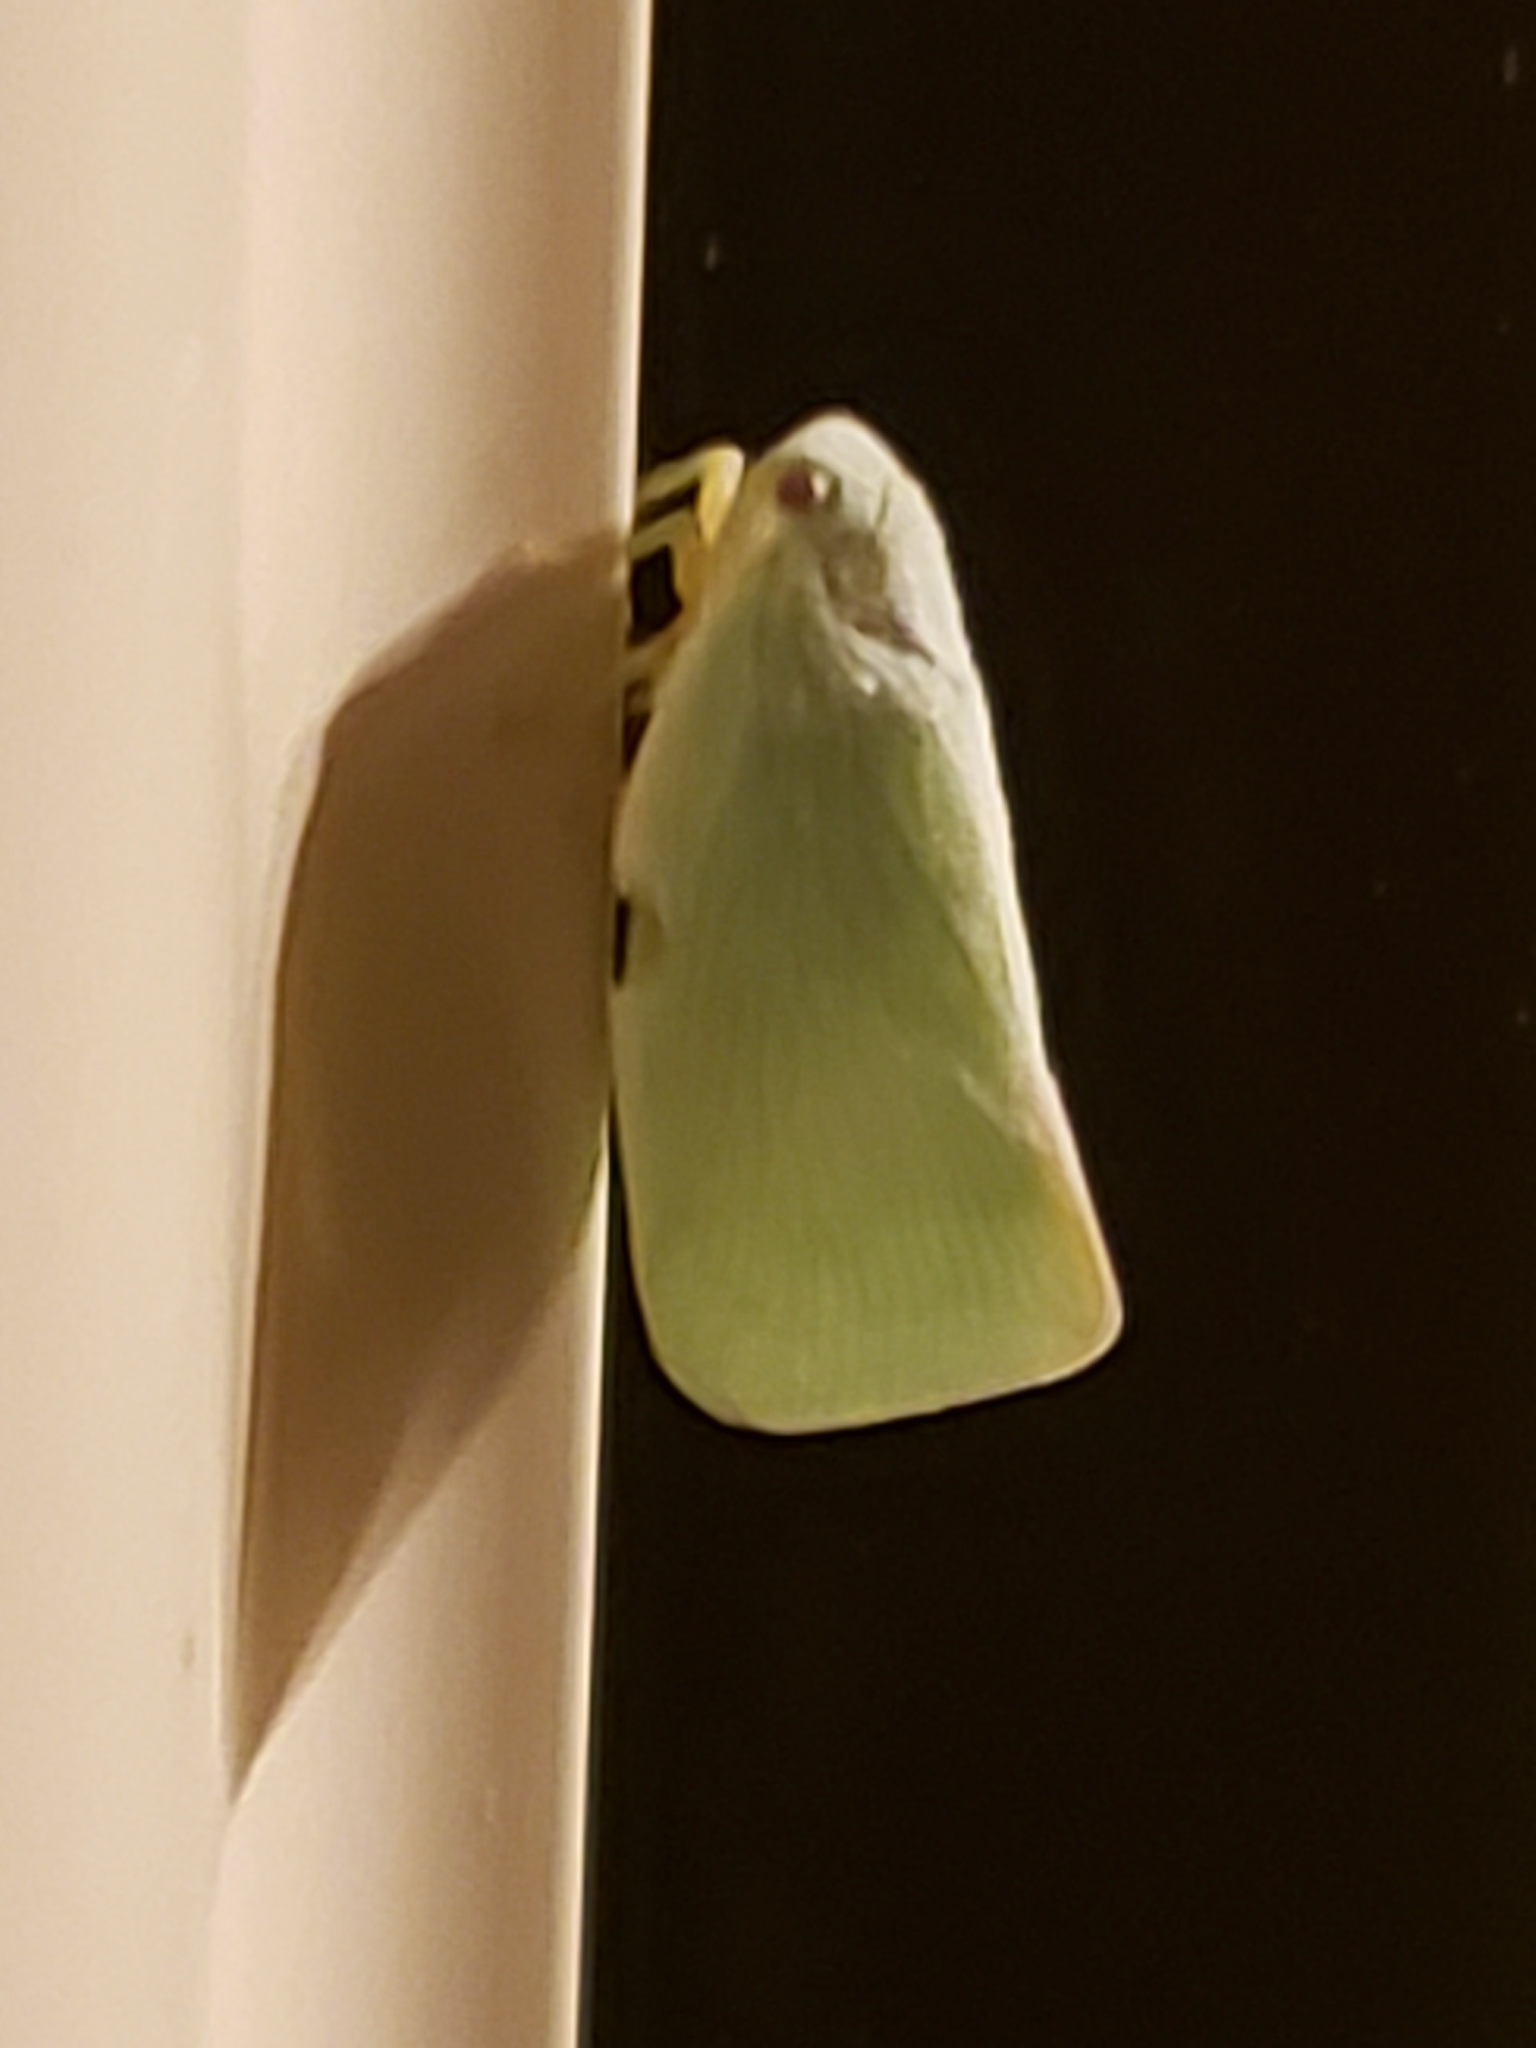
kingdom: Animalia
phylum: Arthropoda
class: Insecta
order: Hemiptera
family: Flatidae
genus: Flatormenis
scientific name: Flatormenis proxima
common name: Northern flatid planthopper
